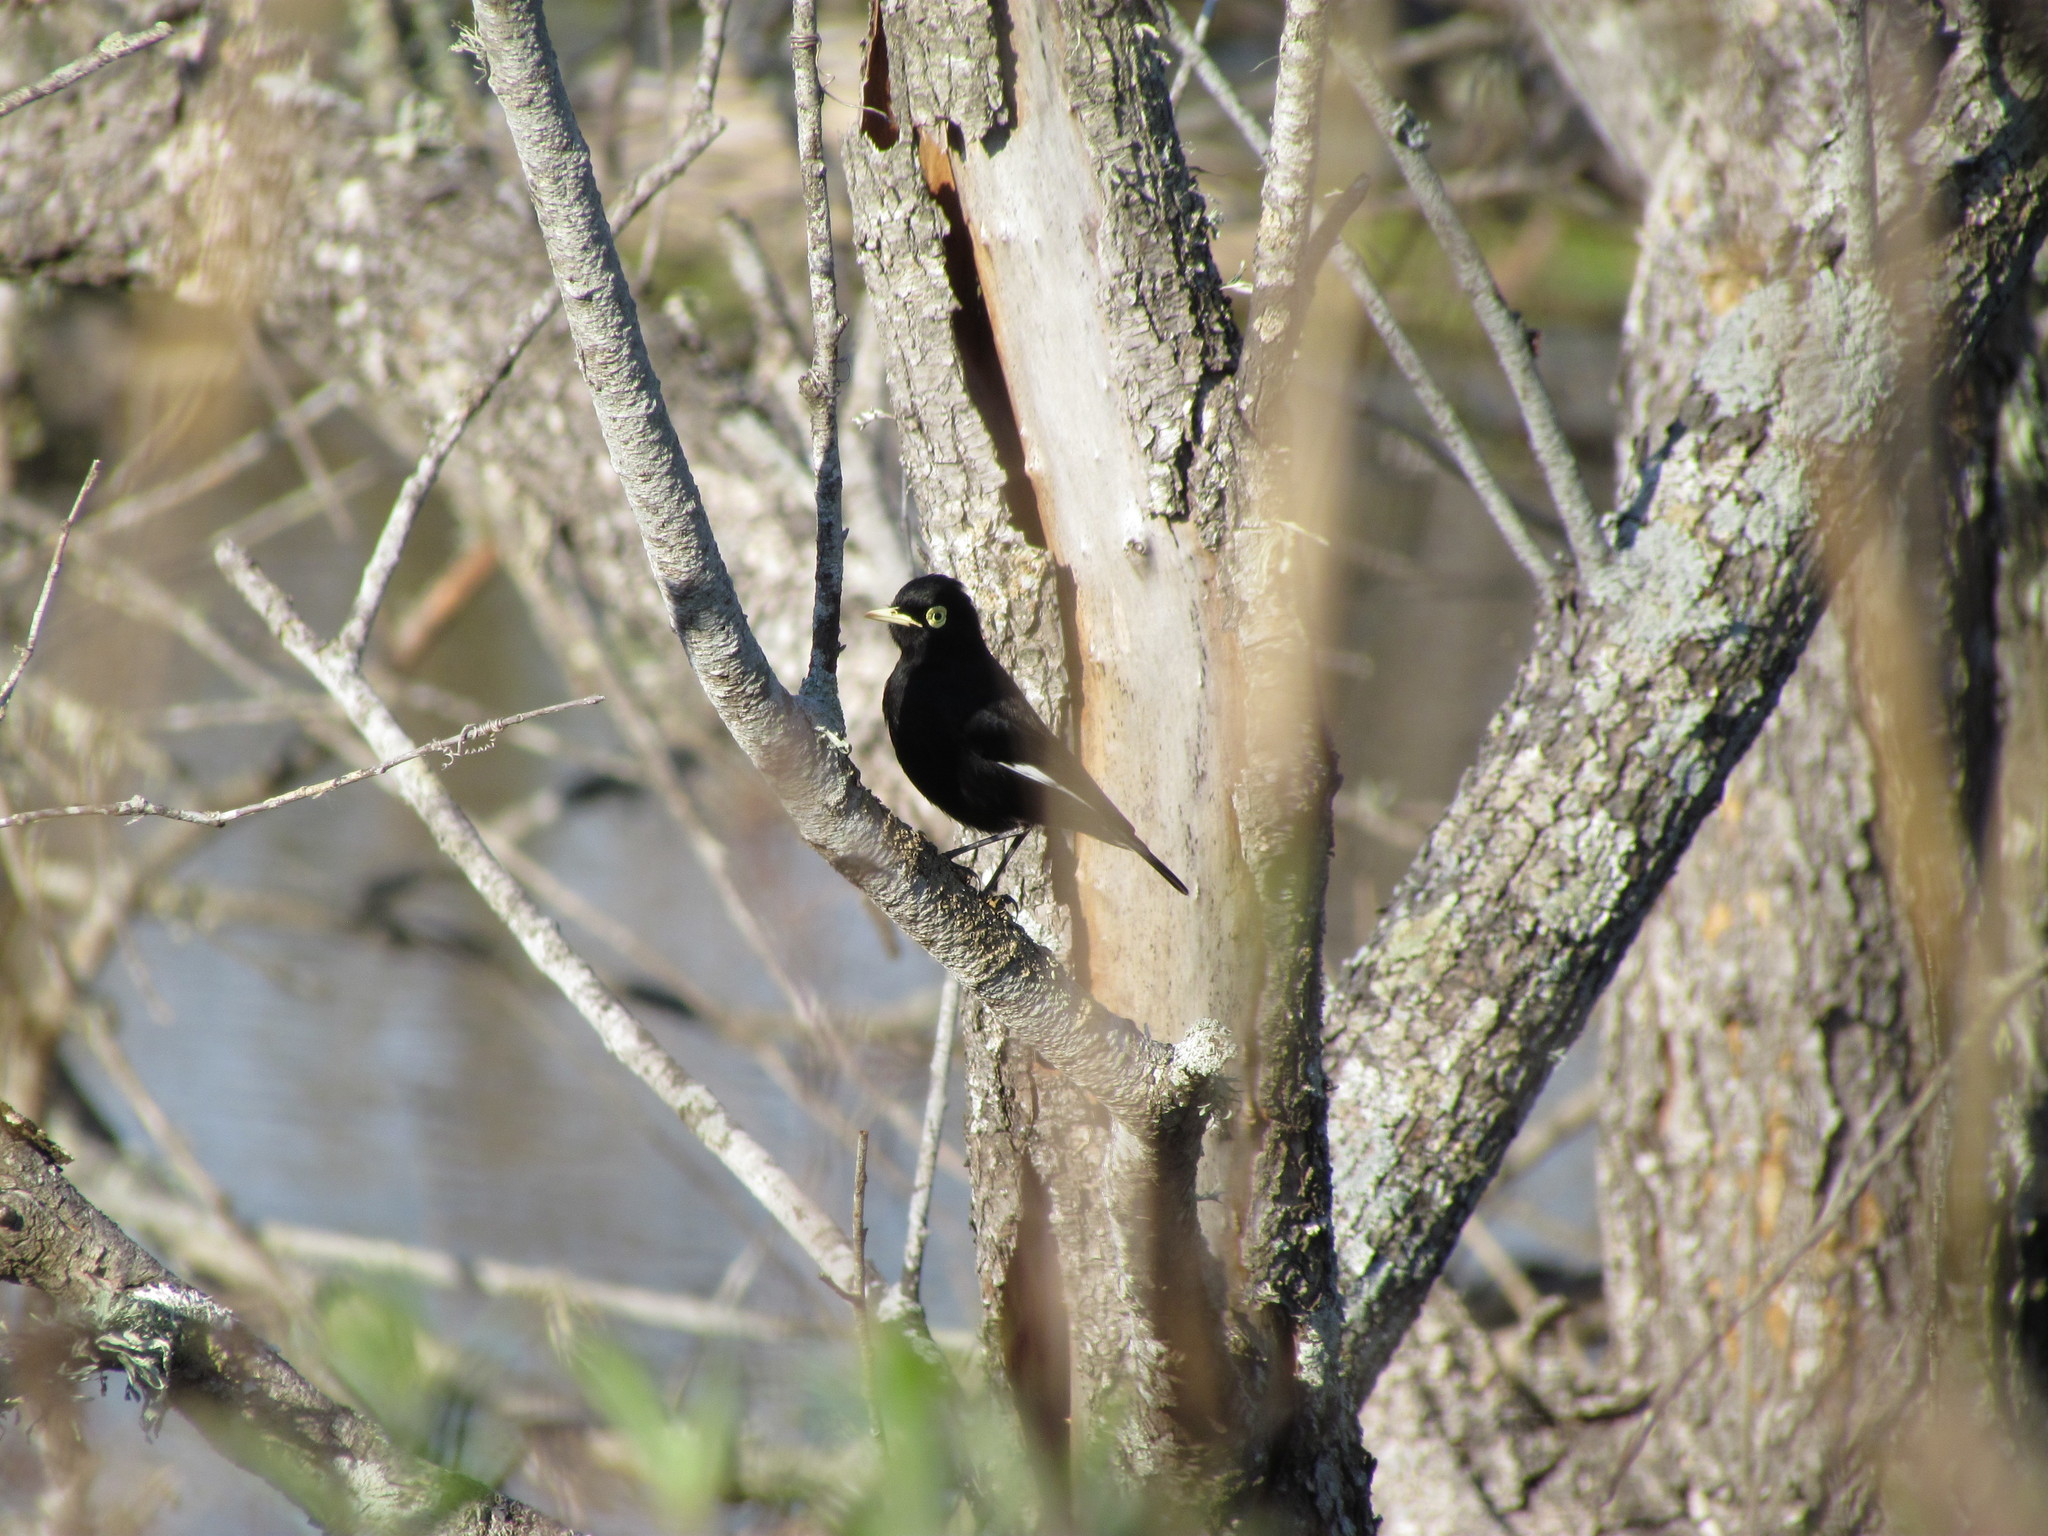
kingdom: Animalia
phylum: Chordata
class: Aves
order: Passeriformes
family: Tyrannidae
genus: Hymenops
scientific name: Hymenops perspicillatus
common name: Spectacled tyrant
